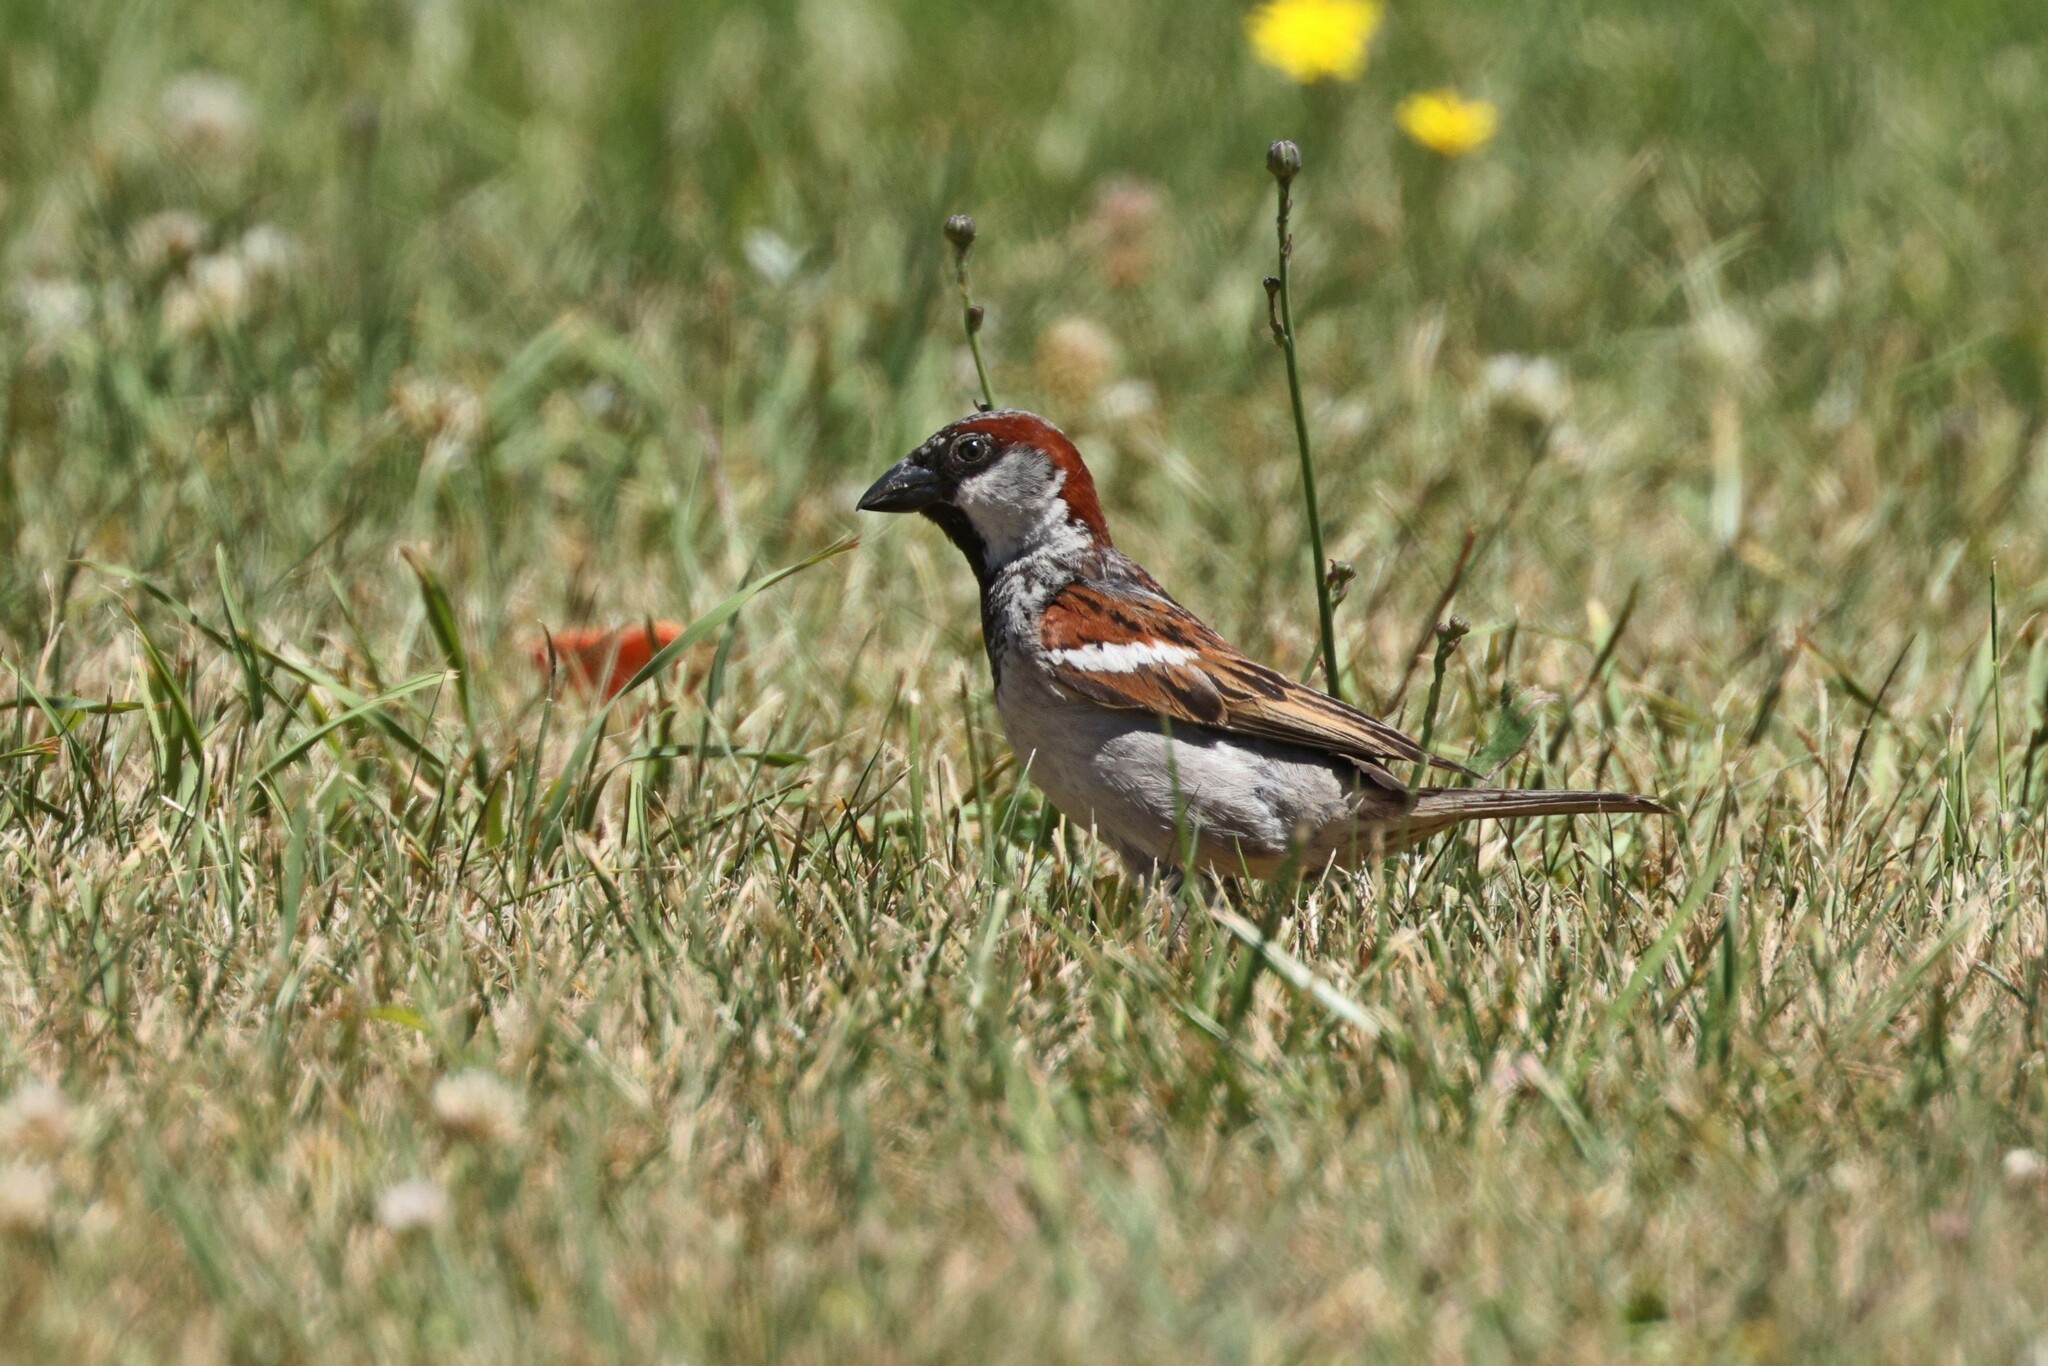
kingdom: Animalia
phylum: Chordata
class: Aves
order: Passeriformes
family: Passeridae
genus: Passer
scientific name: Passer domesticus
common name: House sparrow
